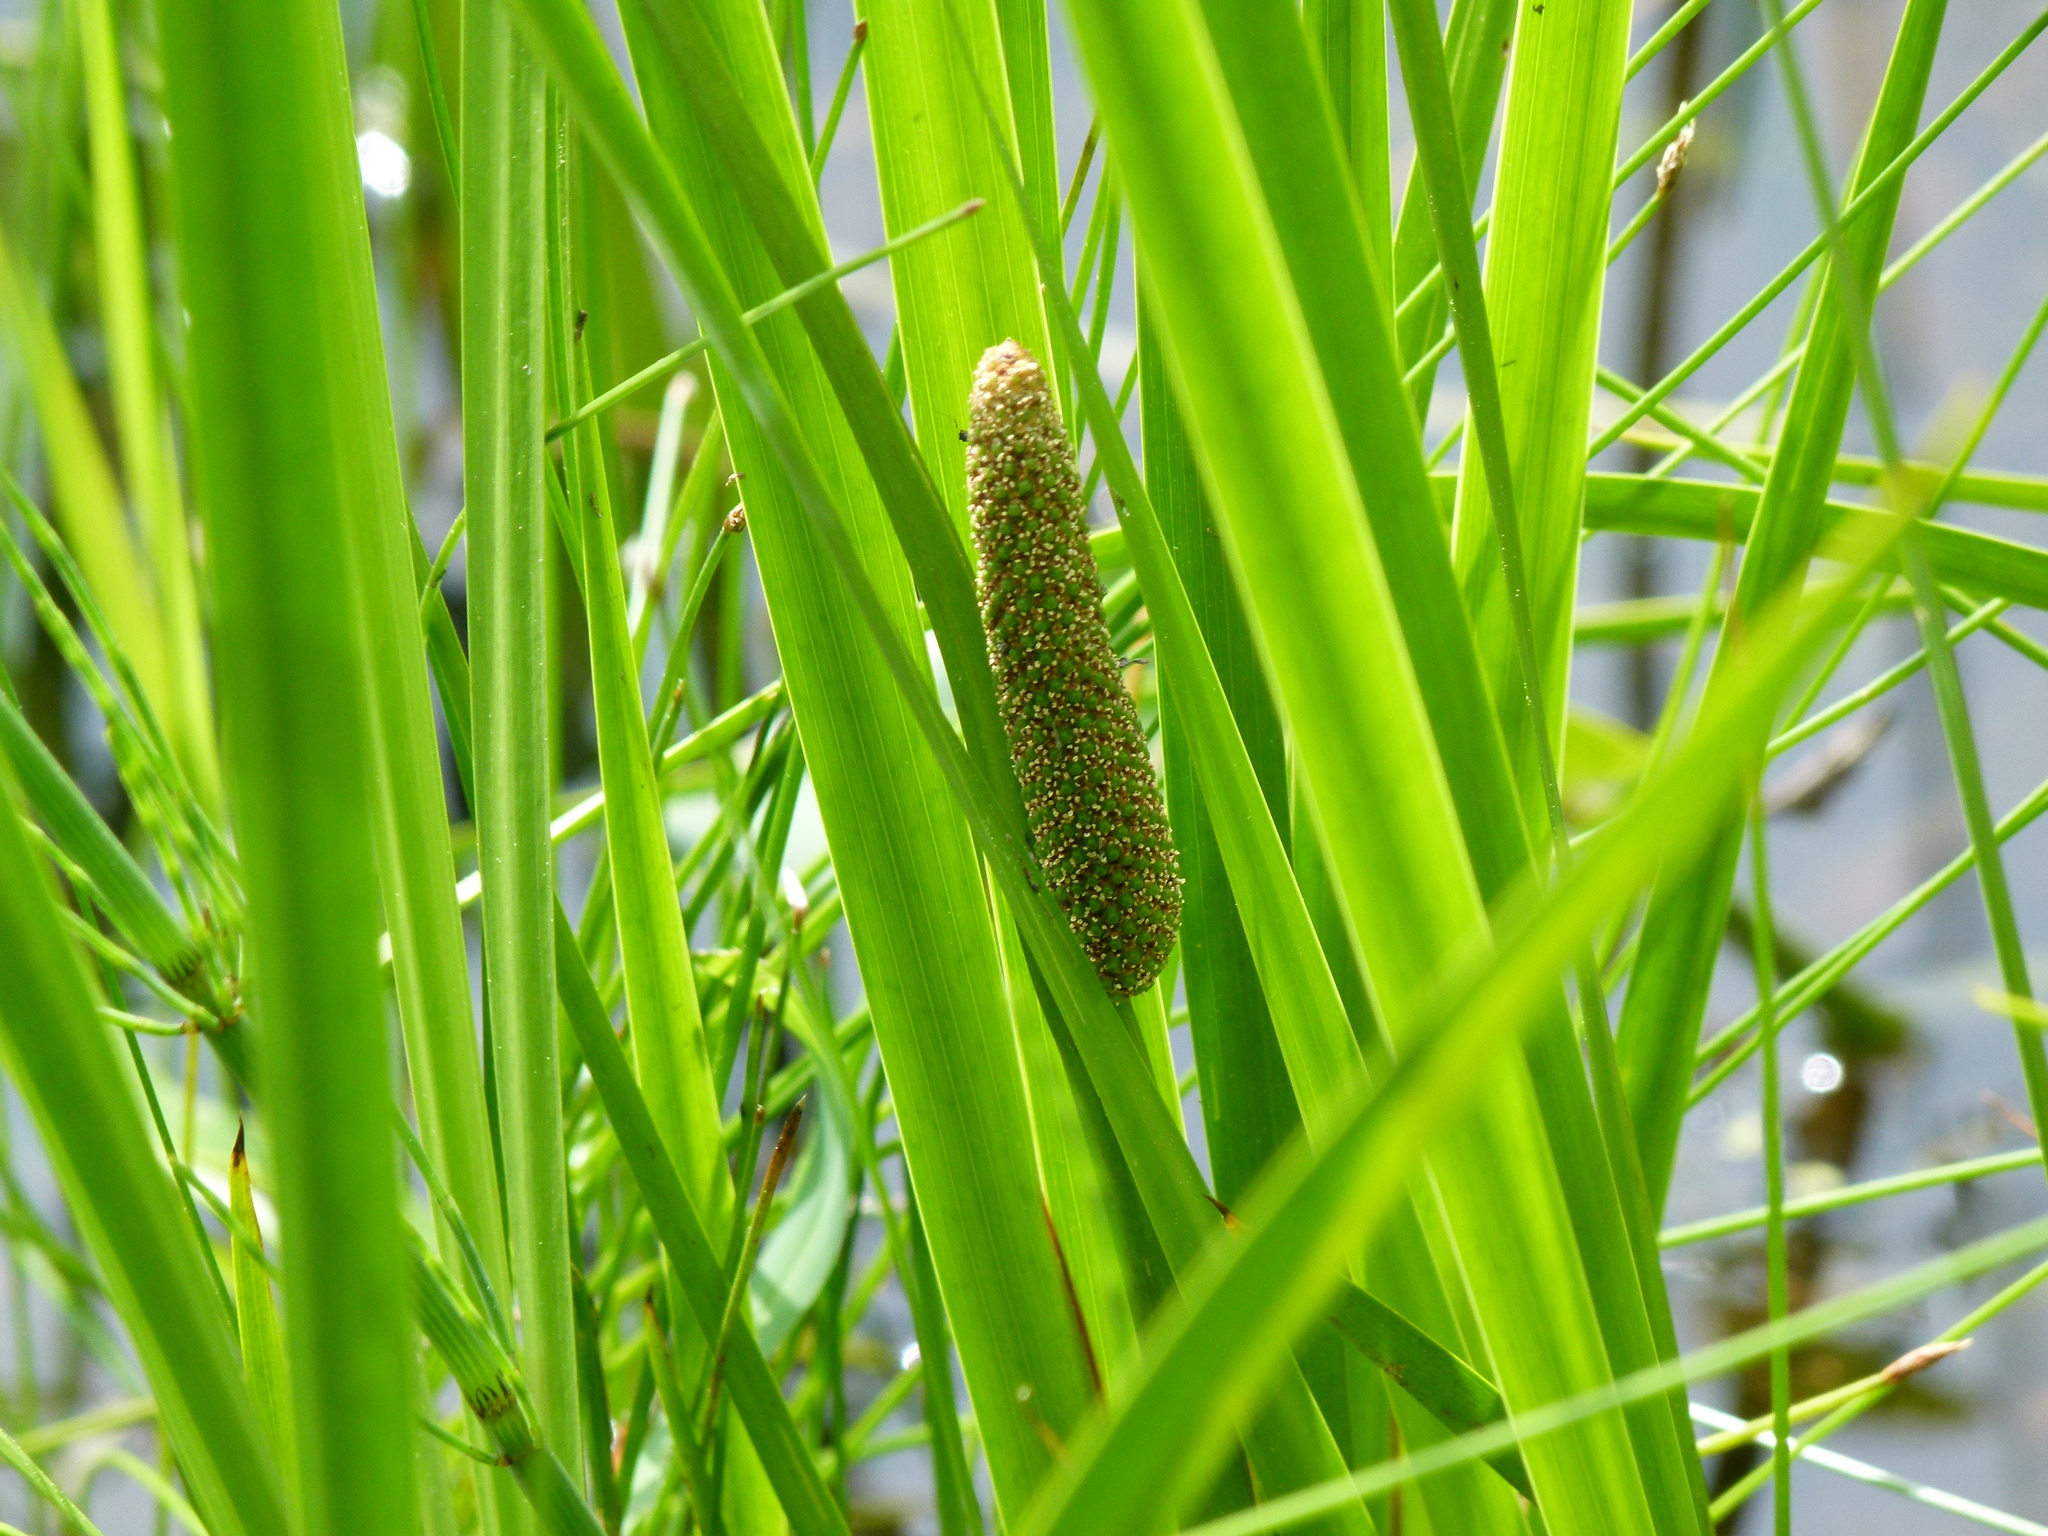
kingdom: Plantae
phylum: Tracheophyta
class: Liliopsida
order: Acorales
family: Acoraceae
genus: Acorus
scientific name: Acorus calamus
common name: Sweet-flag
